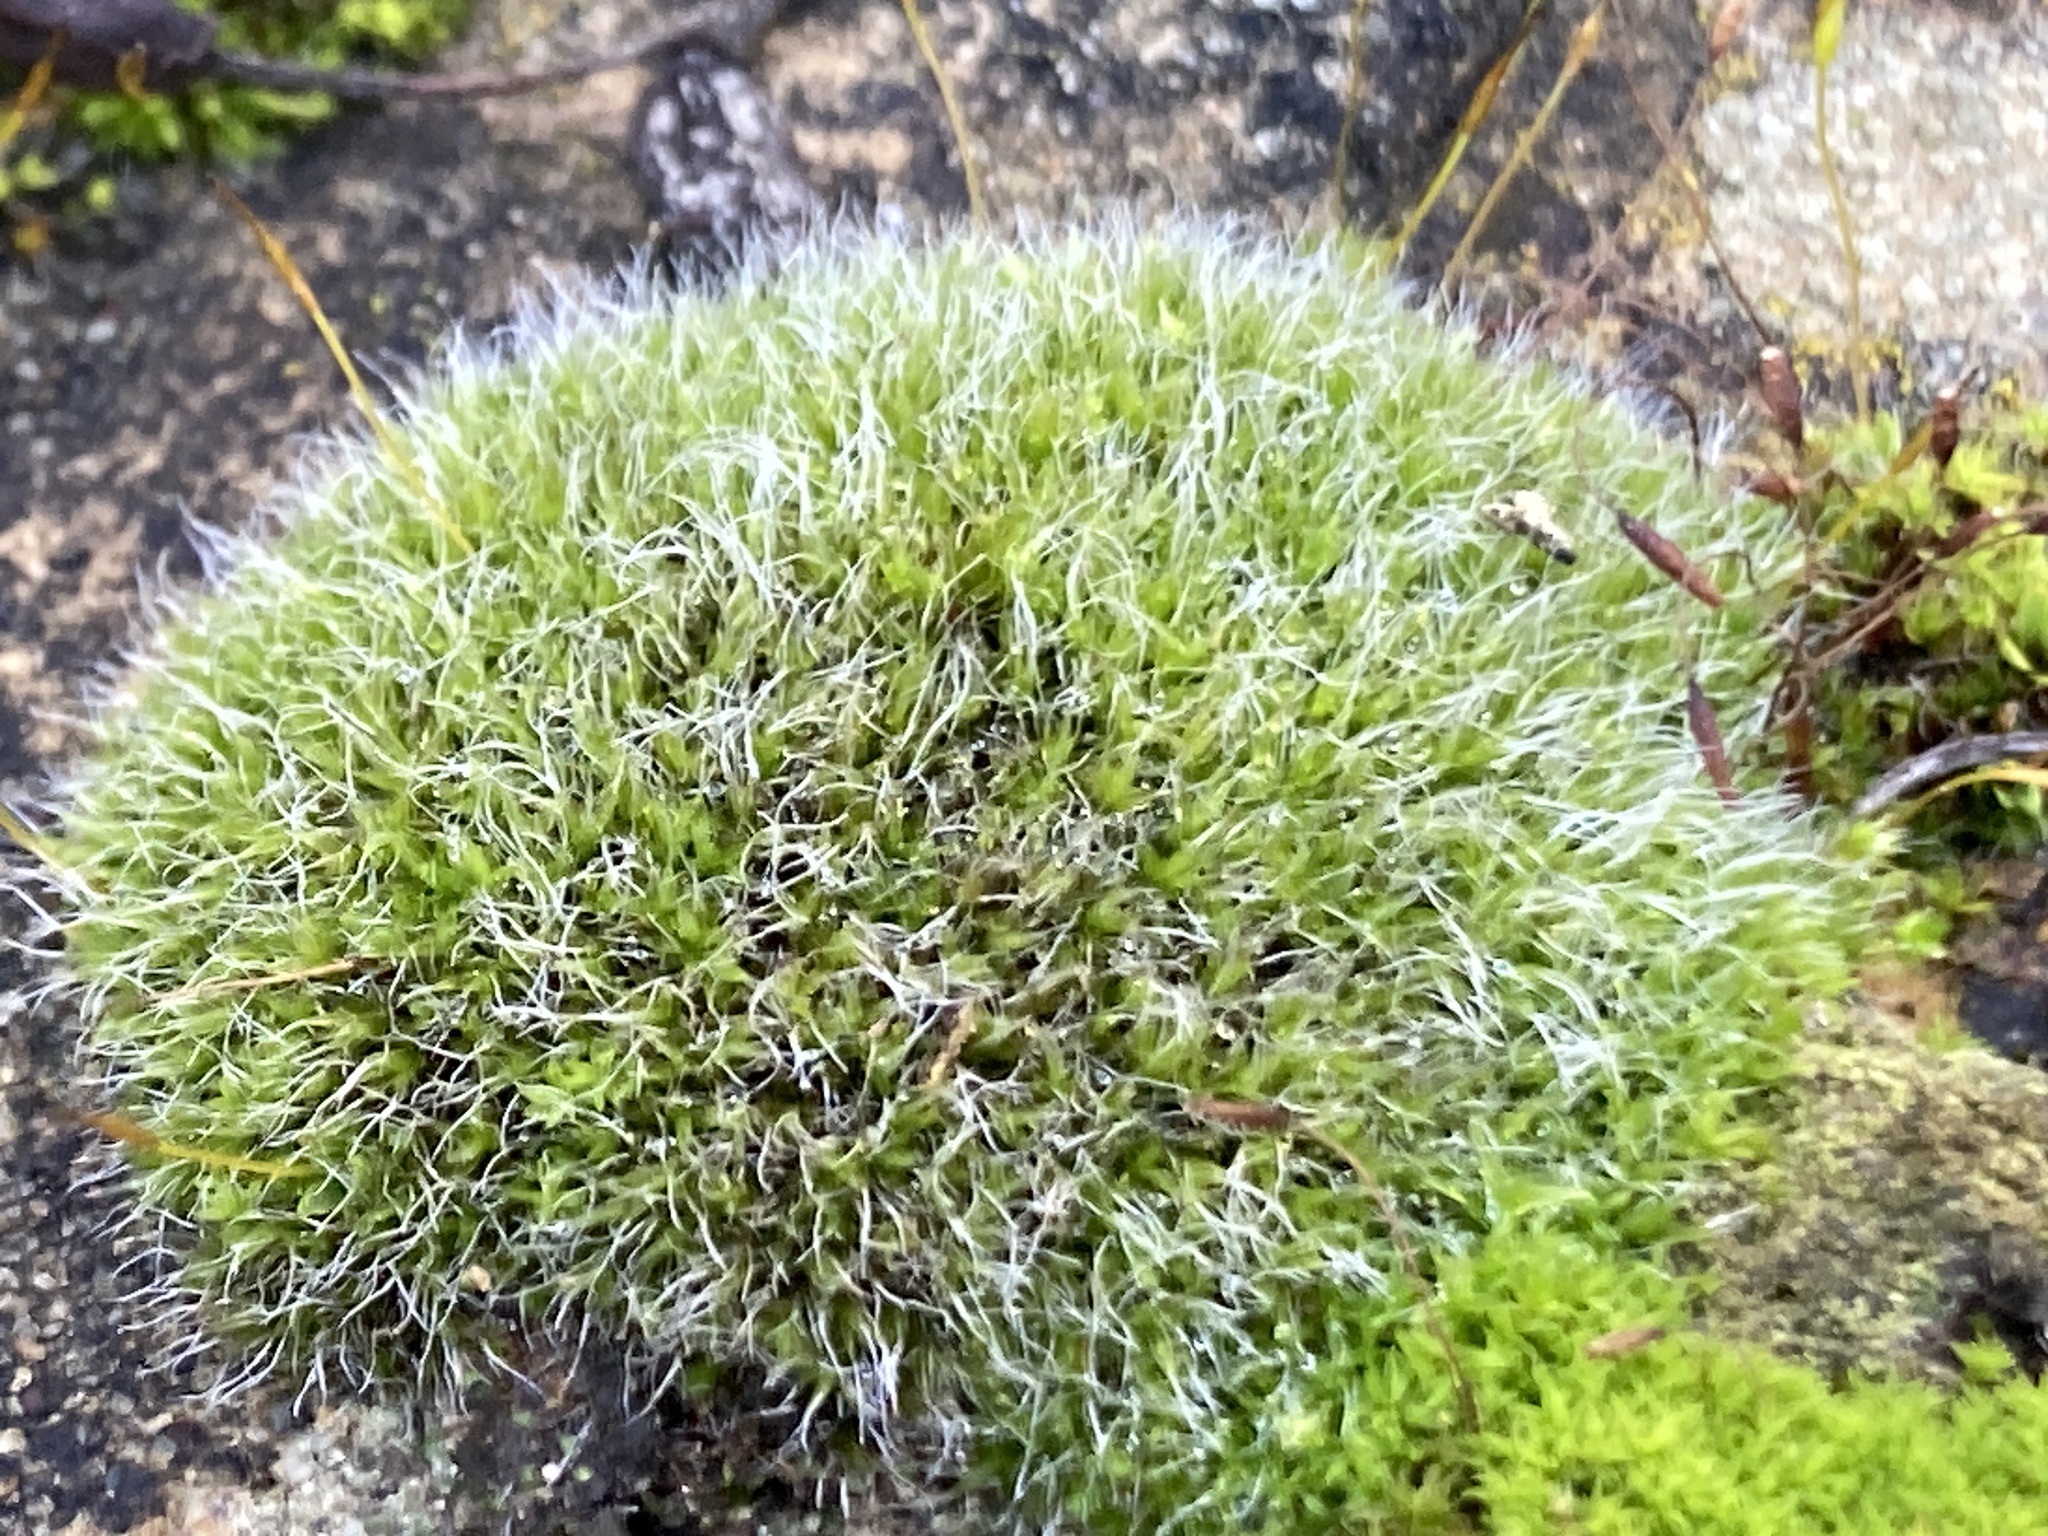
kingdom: Plantae
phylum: Bryophyta
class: Bryopsida
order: Grimmiales
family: Grimmiaceae
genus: Grimmia
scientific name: Grimmia pulvinata
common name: Grey-cushioned grimmia
